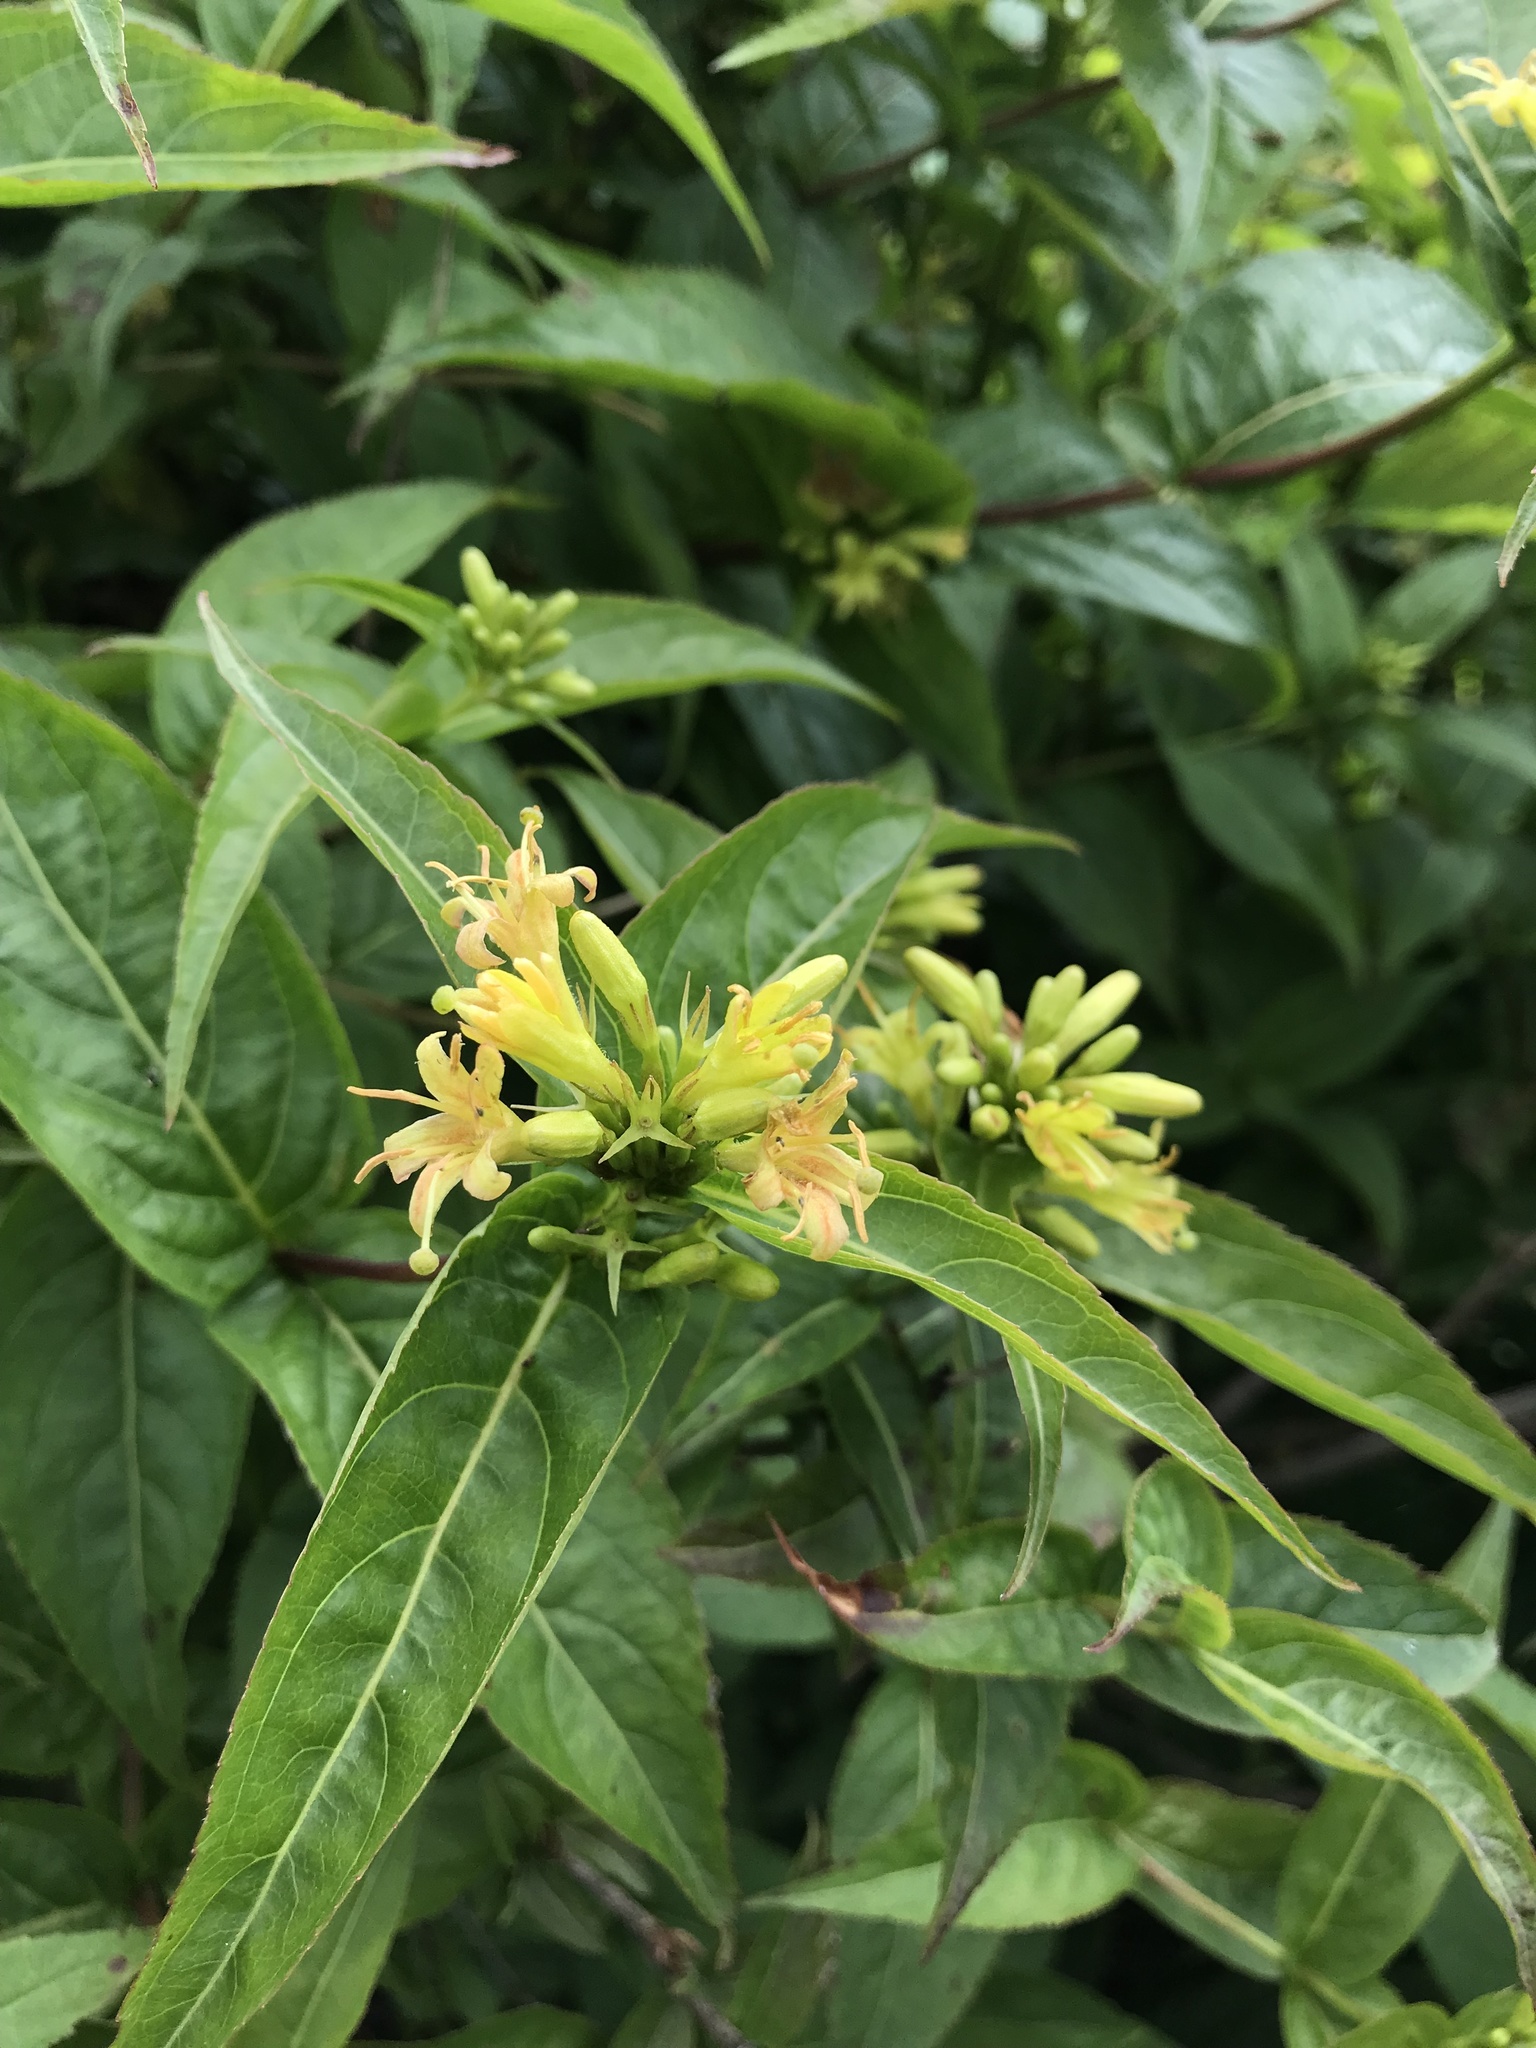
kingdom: Plantae
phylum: Tracheophyta
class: Magnoliopsida
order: Dipsacales
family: Caprifoliaceae
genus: Diervilla
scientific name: Diervilla sessilifolia
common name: Bush-honeysuckle
